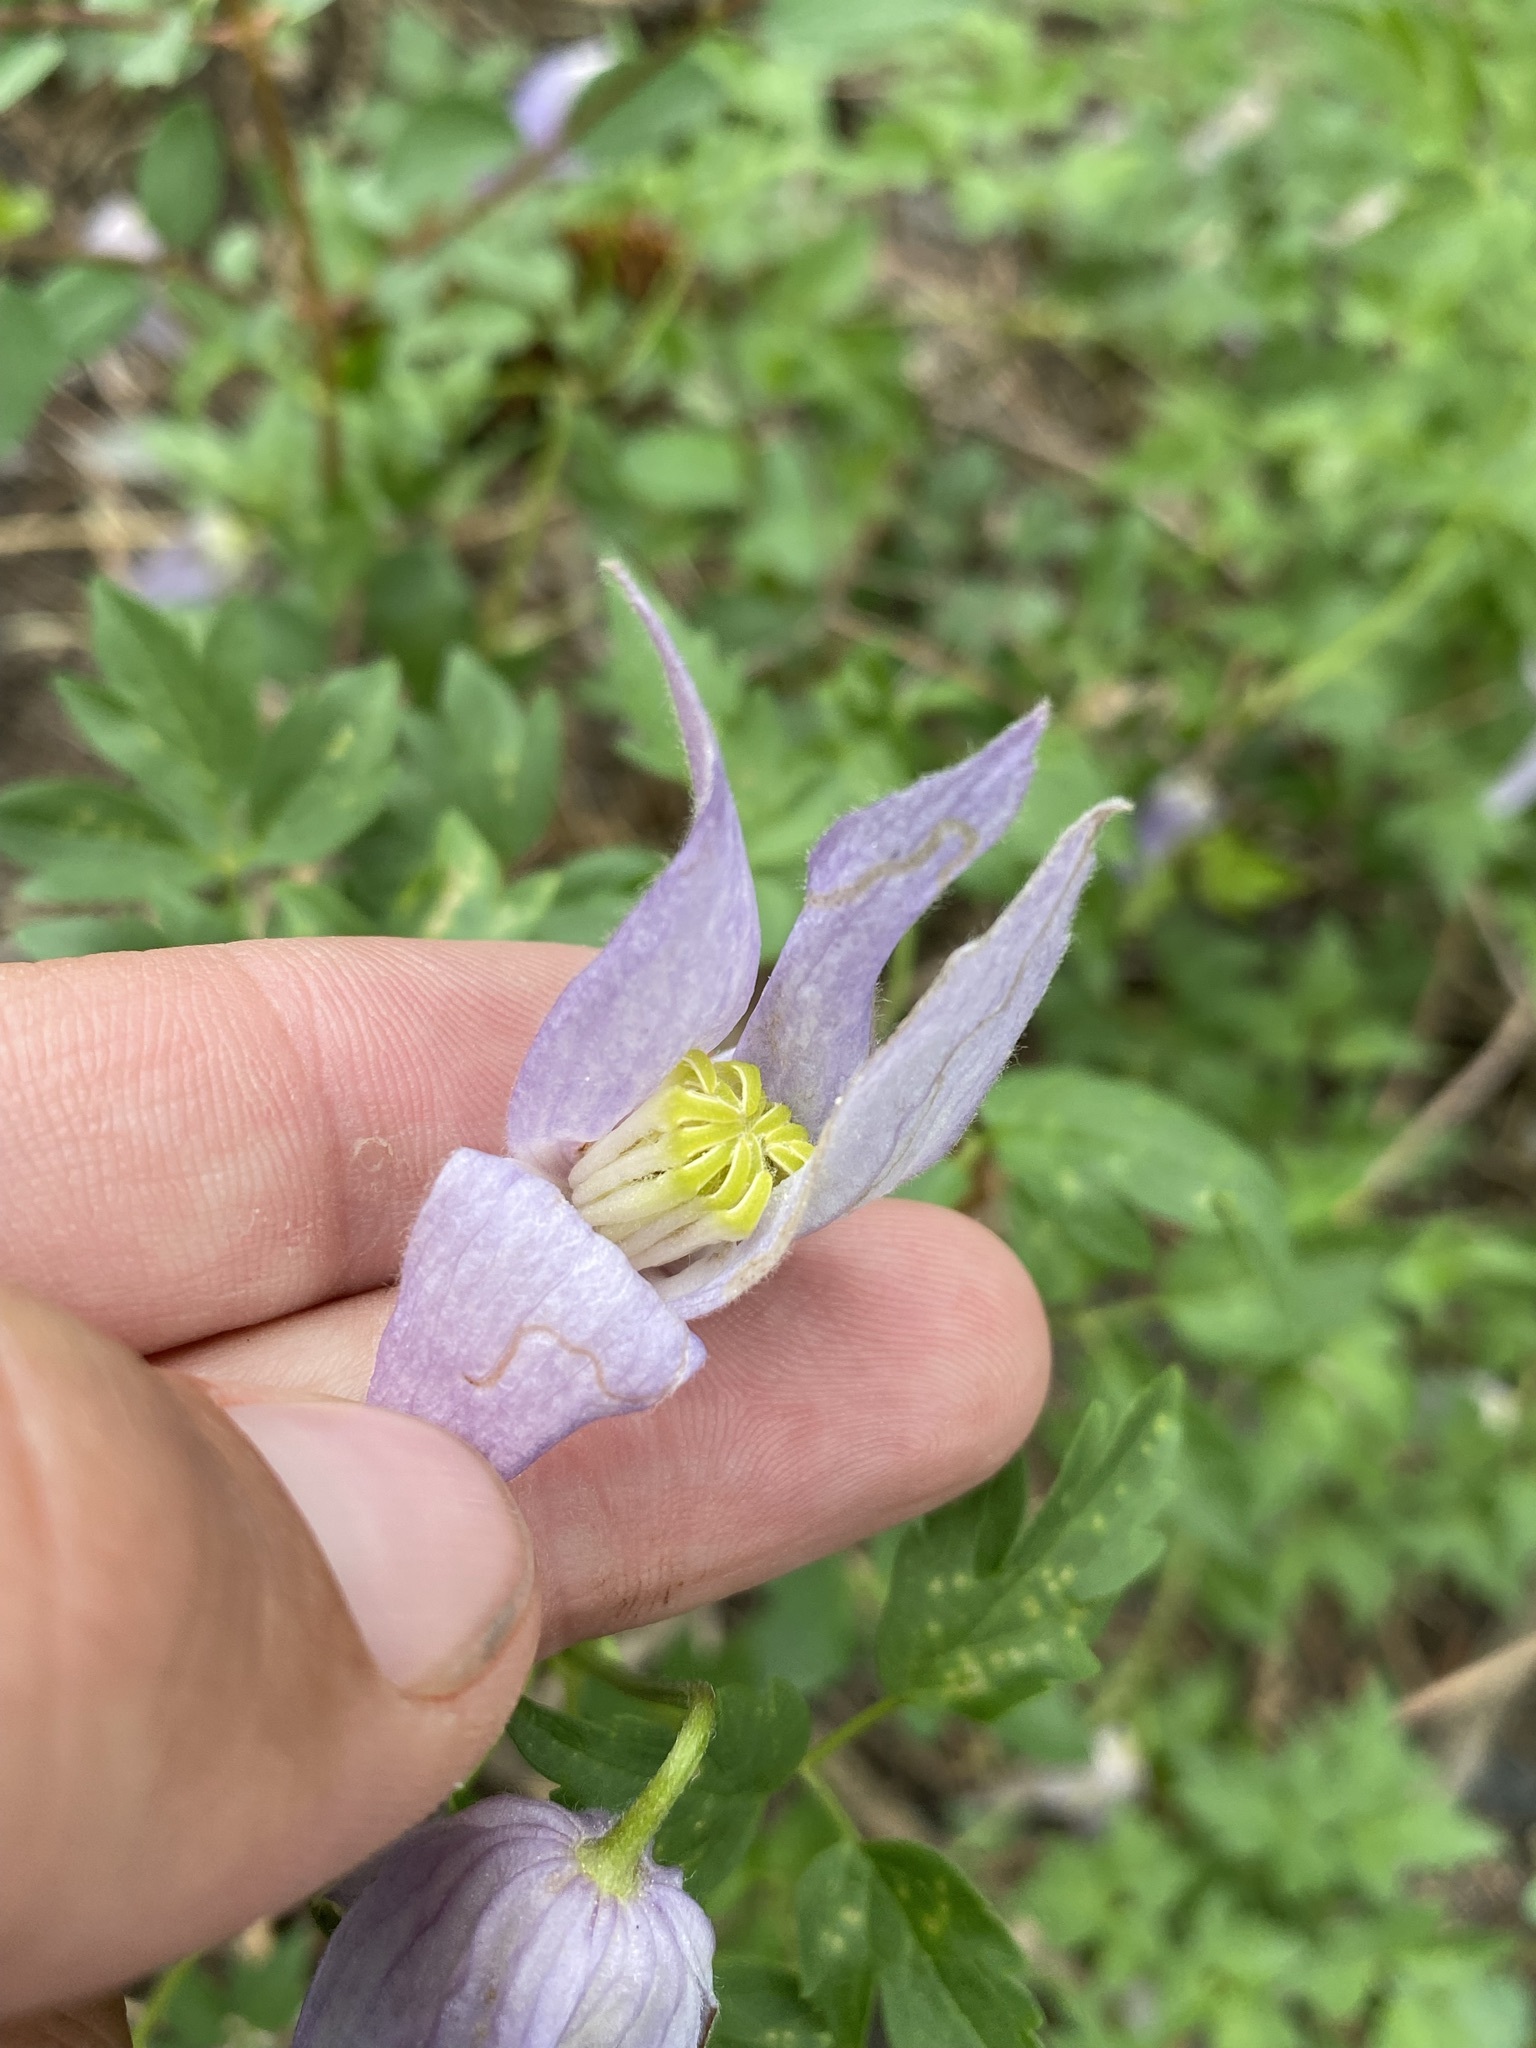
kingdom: Plantae
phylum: Tracheophyta
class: Magnoliopsida
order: Ranunculales
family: Ranunculaceae
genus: Clematis
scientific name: Clematis columbiana
